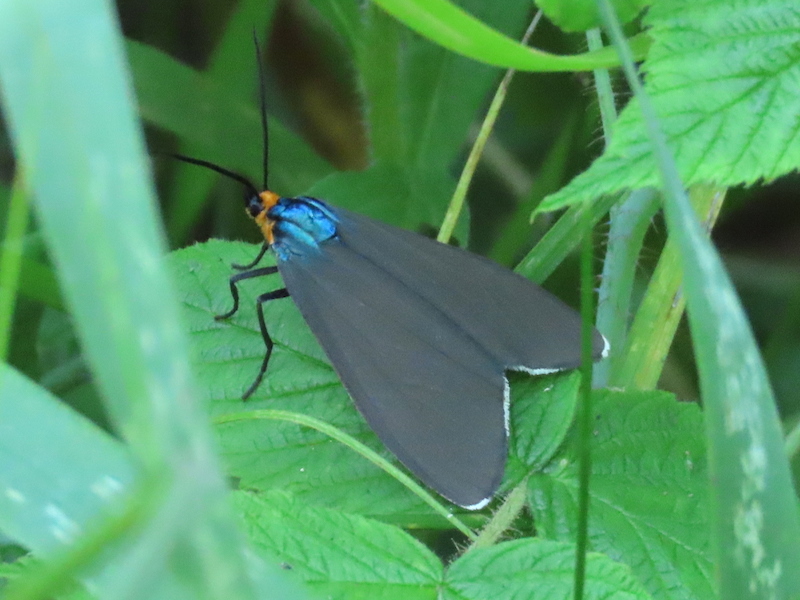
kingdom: Animalia
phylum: Arthropoda
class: Insecta
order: Lepidoptera
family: Erebidae
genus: Ctenucha
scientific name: Ctenucha virginica
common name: Virginia ctenucha moth
